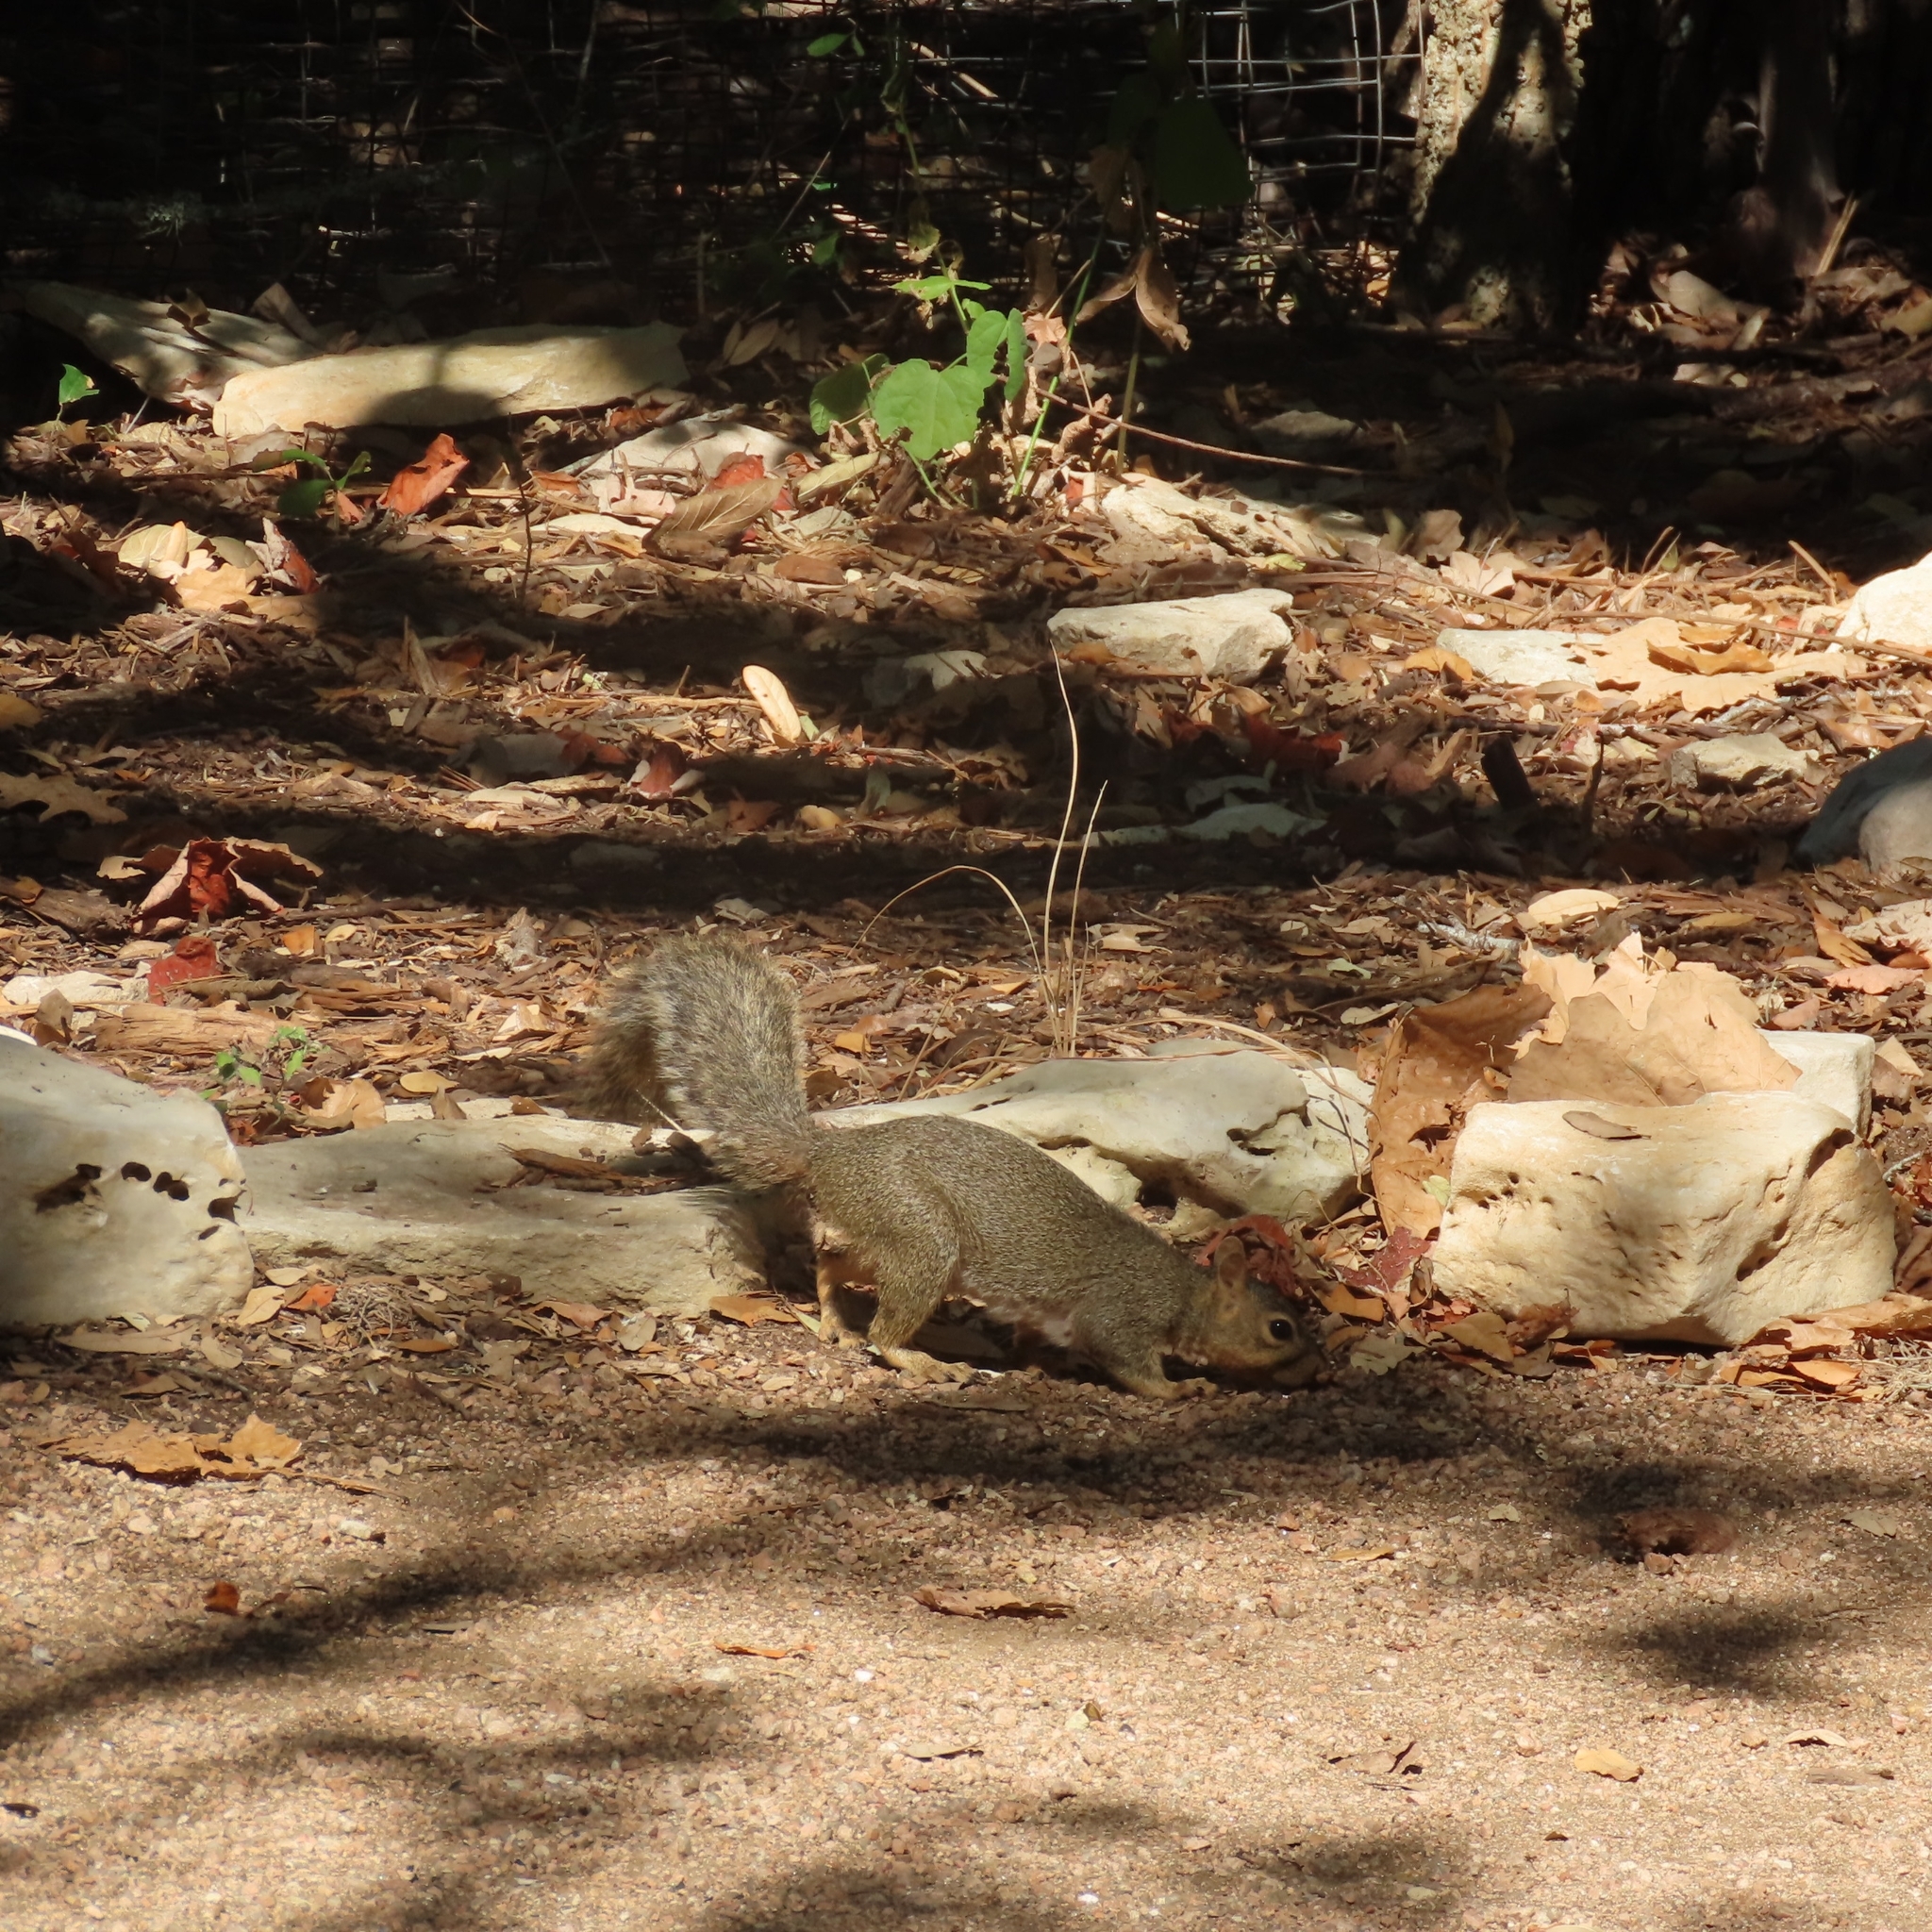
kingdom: Animalia
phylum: Chordata
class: Mammalia
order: Rodentia
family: Sciuridae
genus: Sciurus
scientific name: Sciurus niger
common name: Fox squirrel
